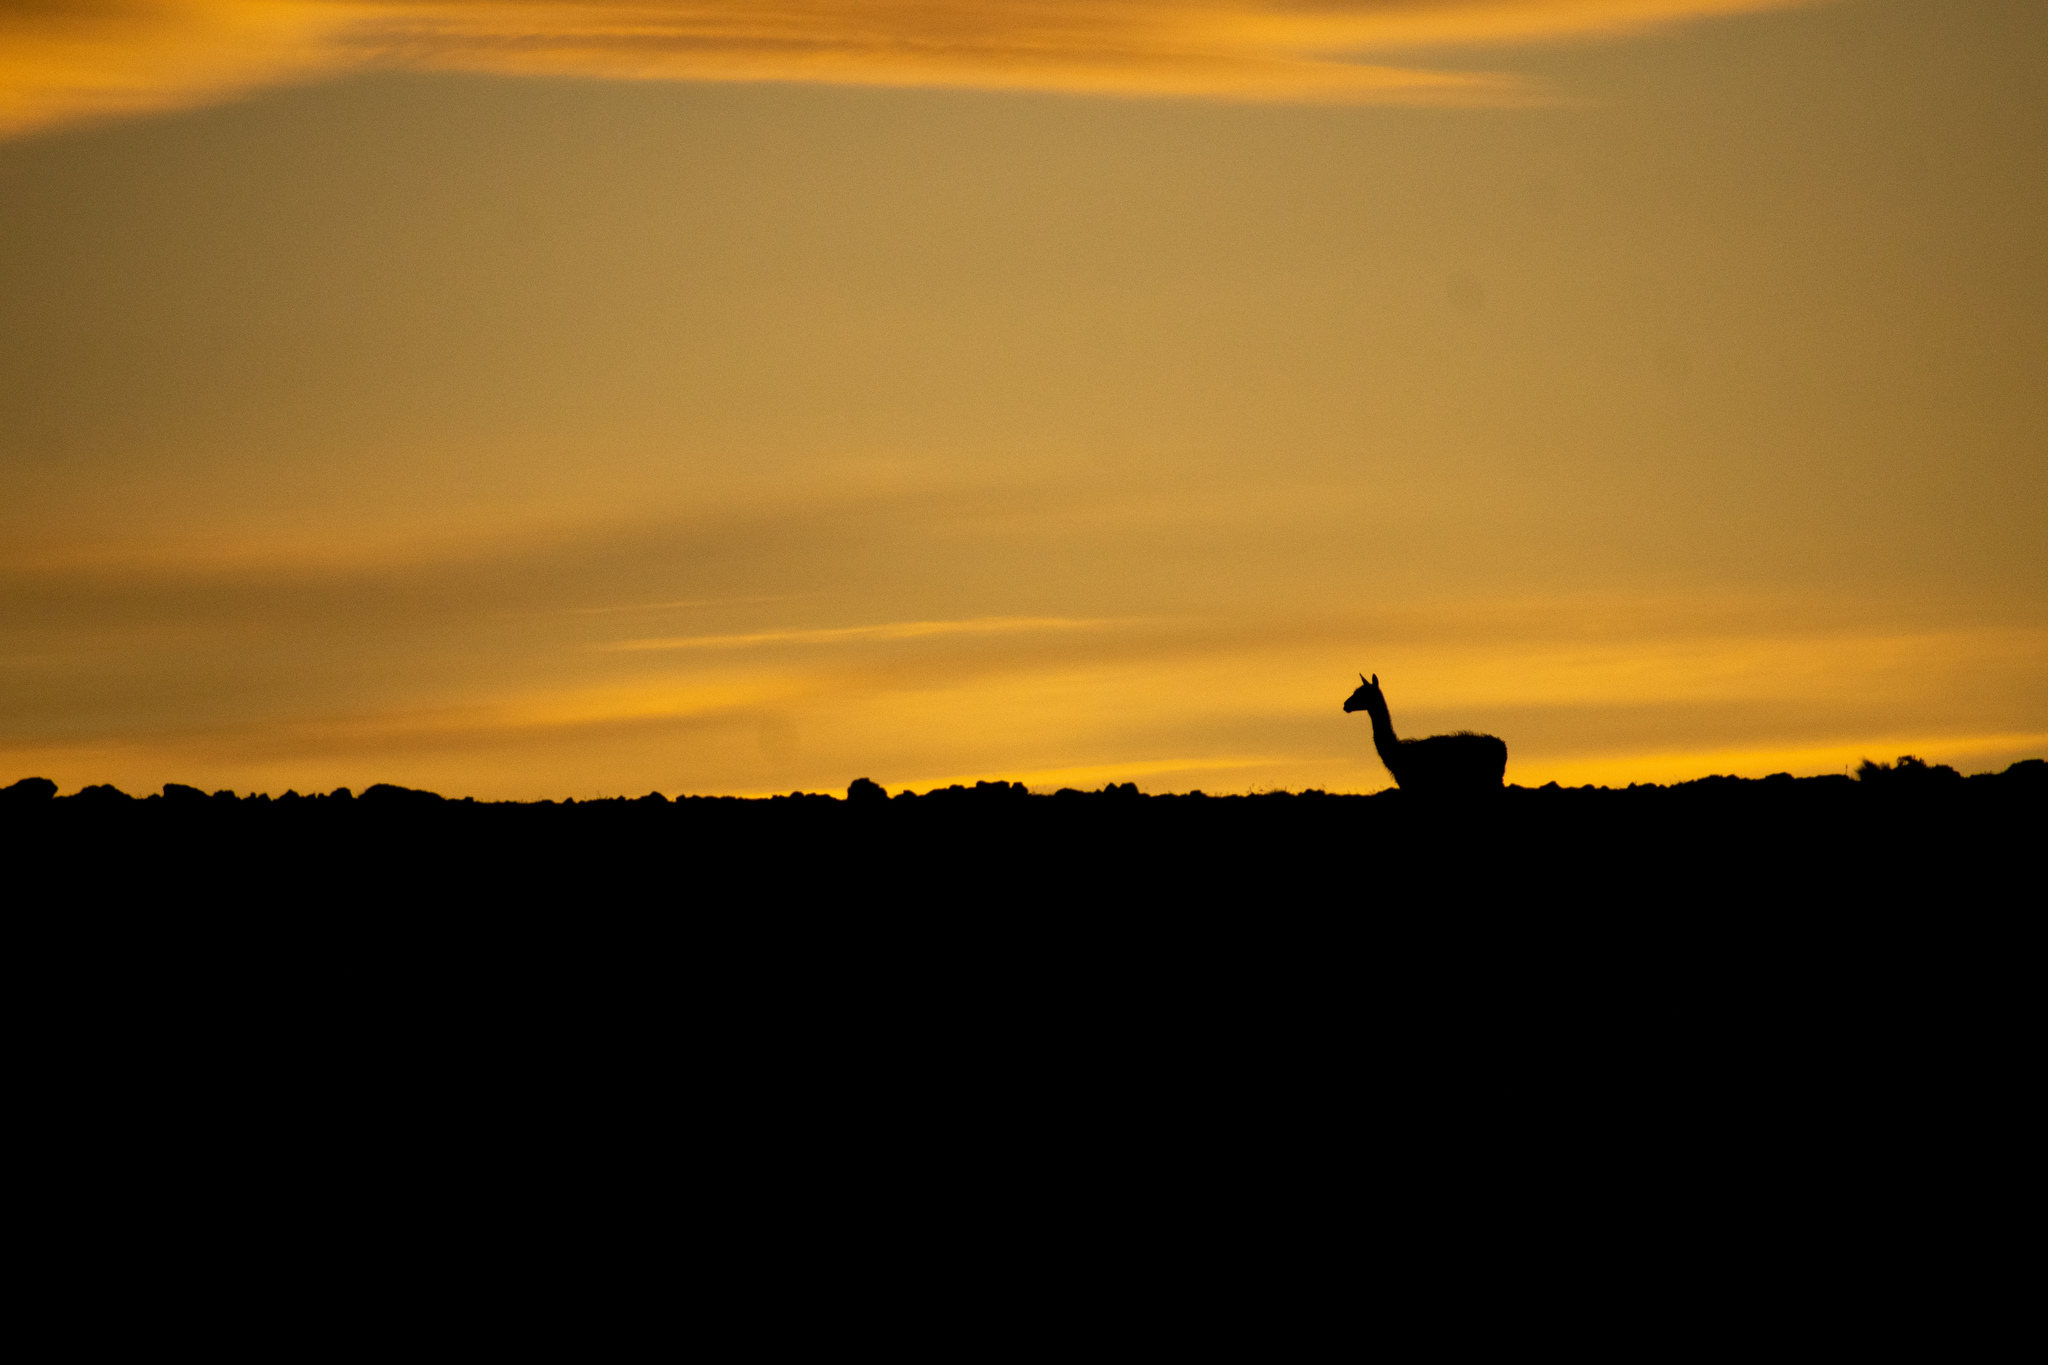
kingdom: Animalia
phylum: Chordata
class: Mammalia
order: Artiodactyla
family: Camelidae
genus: Lama
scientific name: Lama glama
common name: Llama
